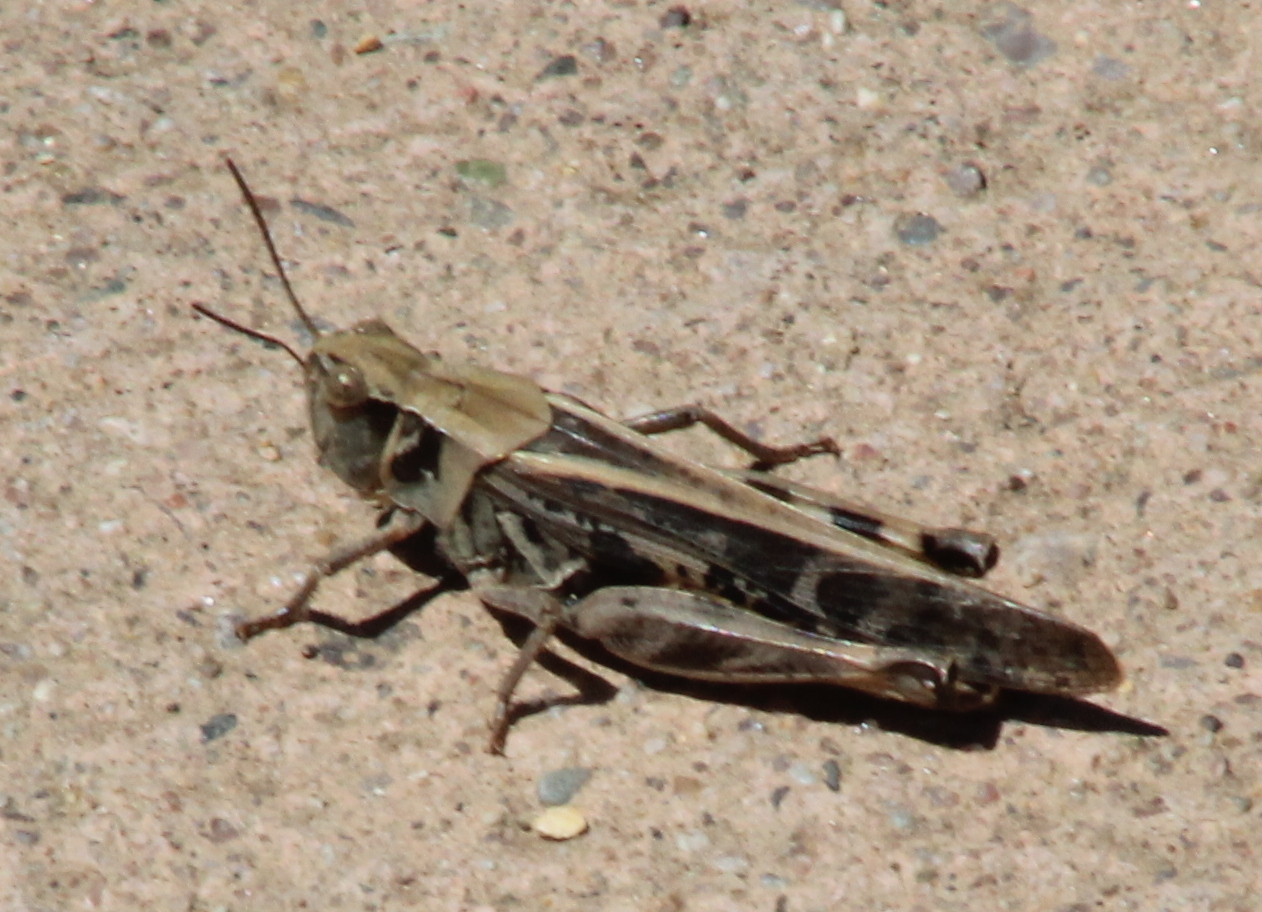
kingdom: Animalia
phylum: Arthropoda
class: Insecta
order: Orthoptera
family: Acrididae
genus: Camnula
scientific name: Camnula pellucida
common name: Clear-winged grasshopper
